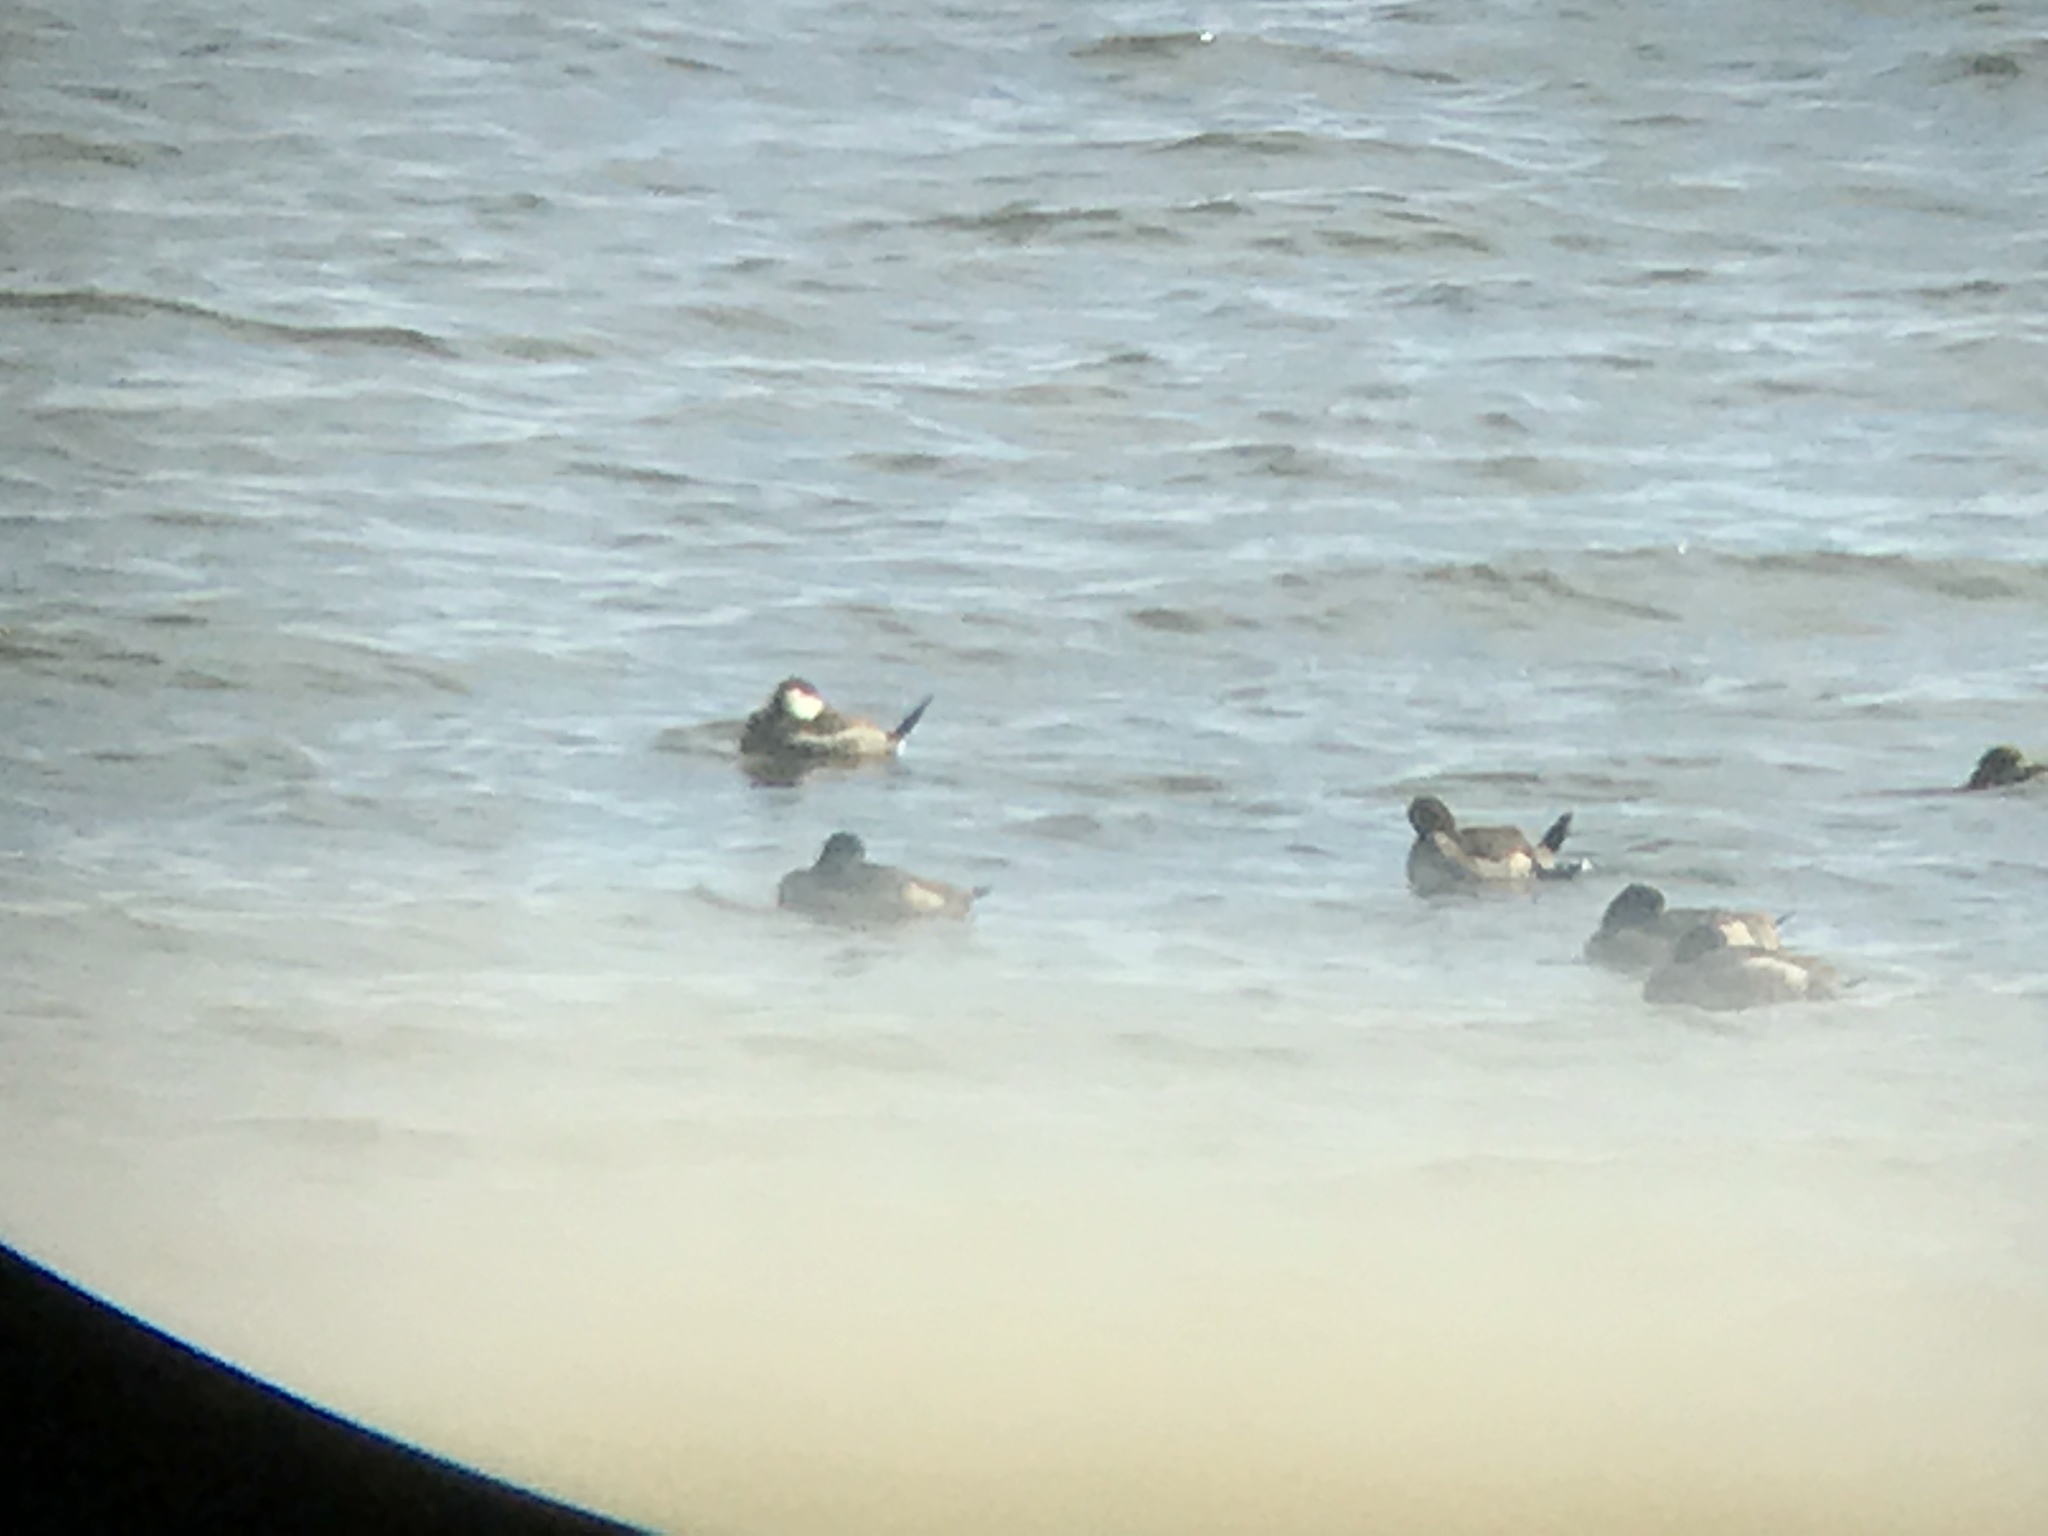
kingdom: Animalia
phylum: Chordata
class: Aves
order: Anseriformes
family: Anatidae
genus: Oxyura
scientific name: Oxyura jamaicensis
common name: Ruddy duck
